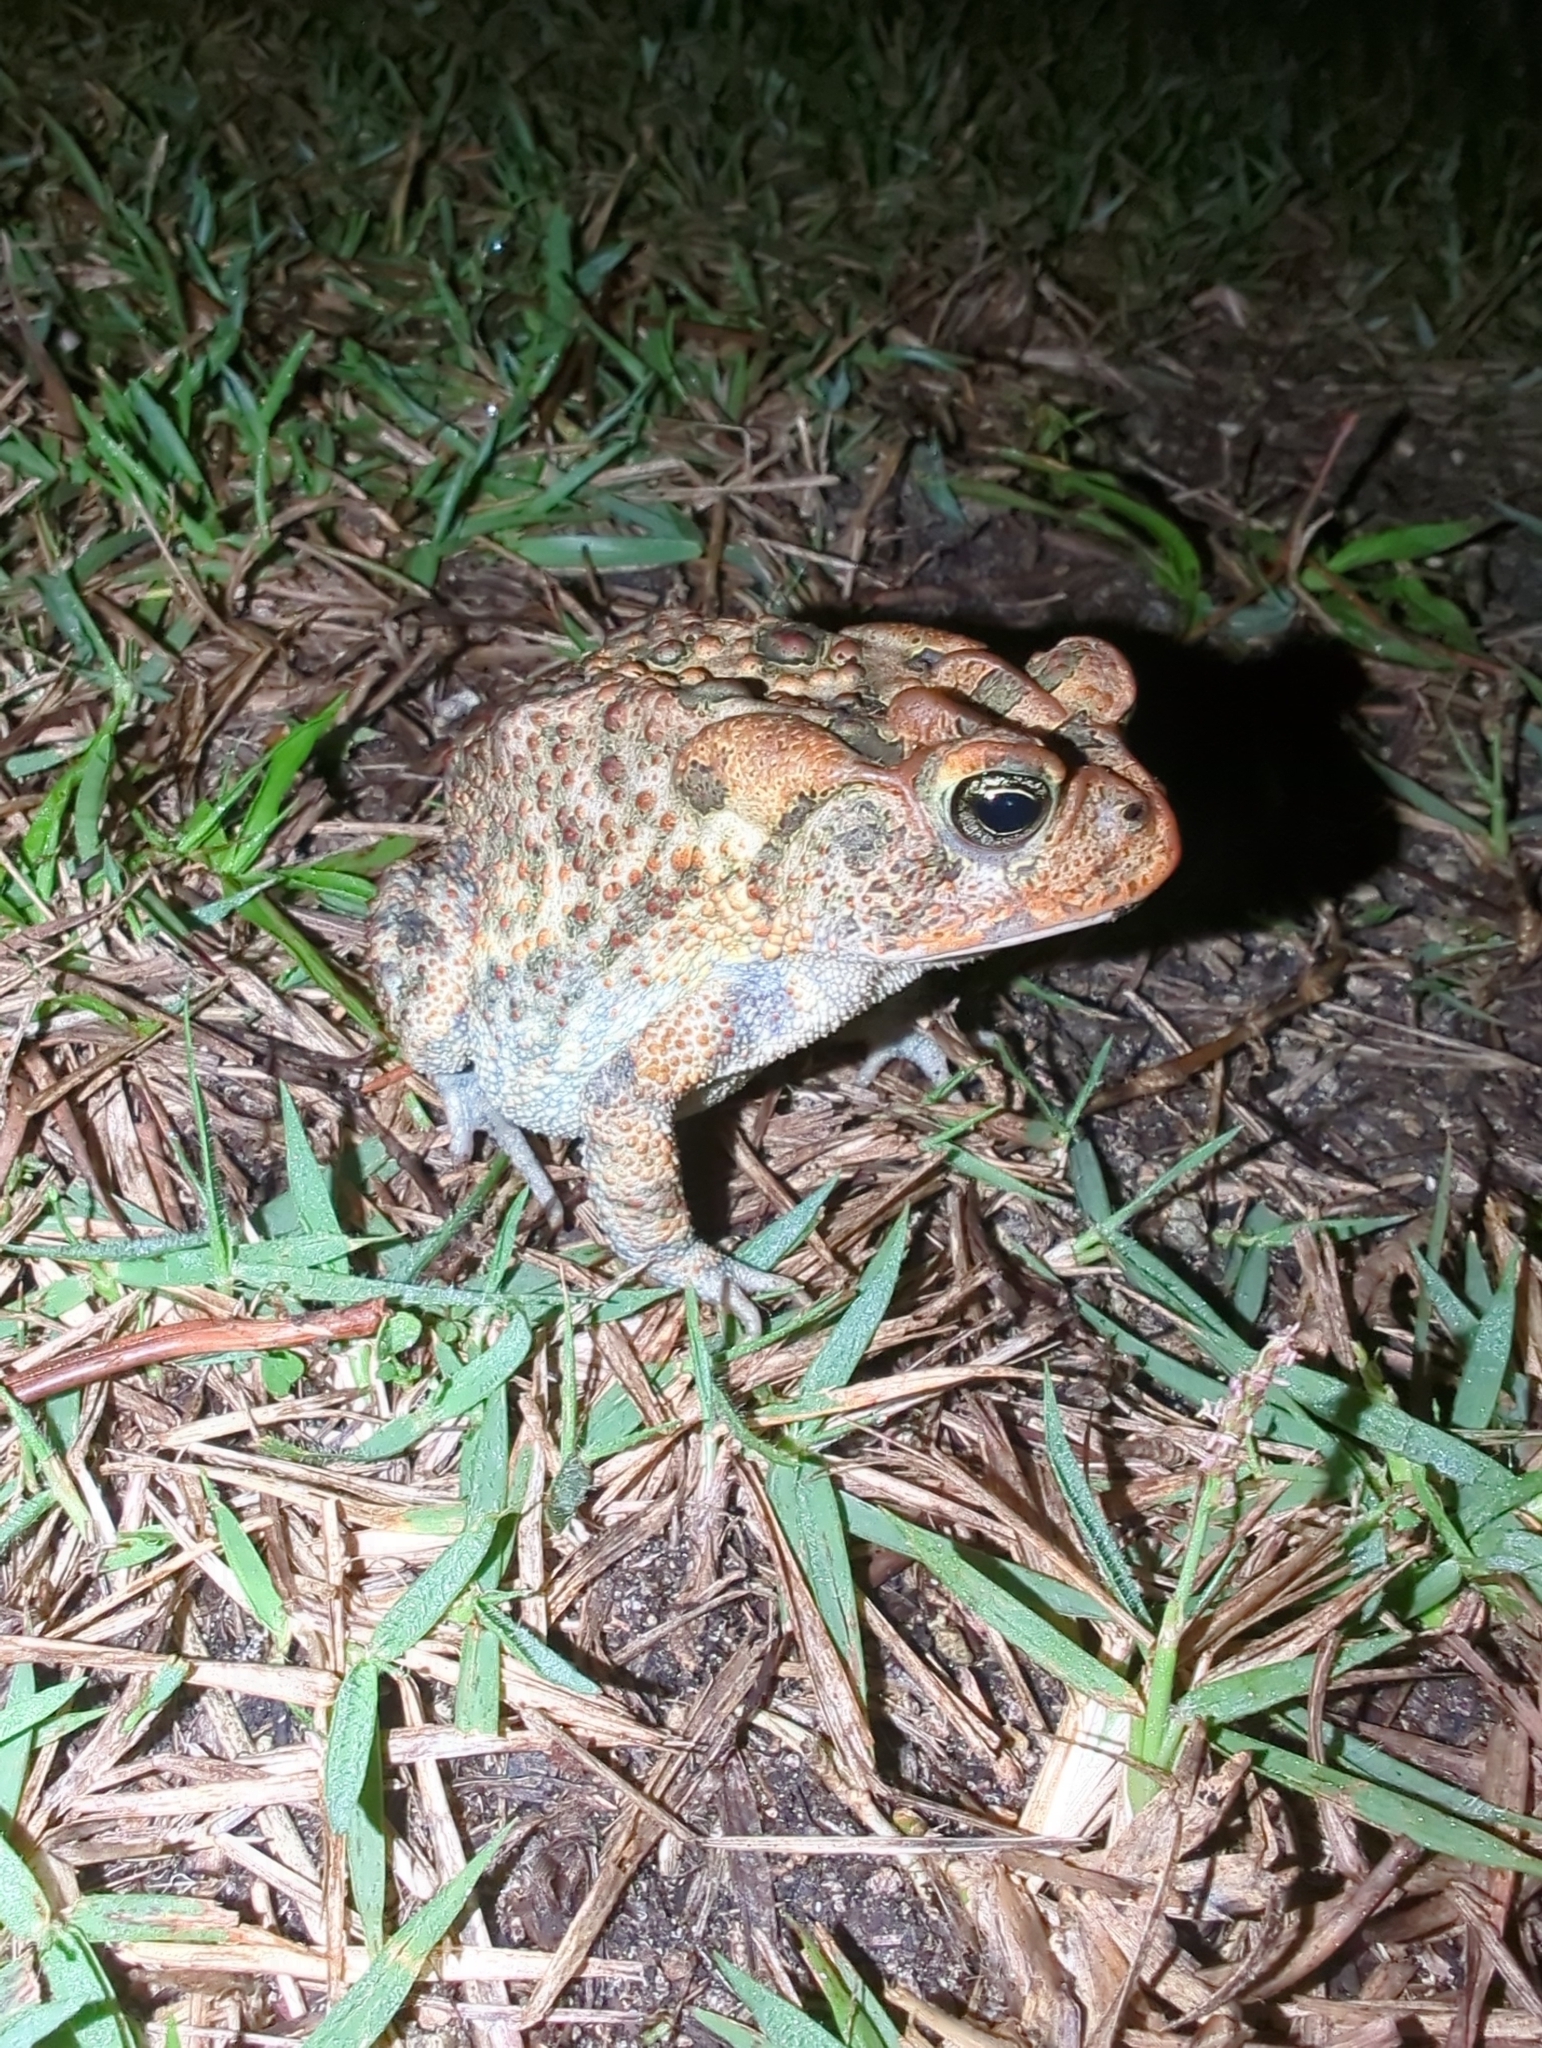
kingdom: Animalia
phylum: Chordata
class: Amphibia
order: Anura
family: Bufonidae
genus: Anaxyrus
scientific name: Anaxyrus terrestris
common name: Southern toad
